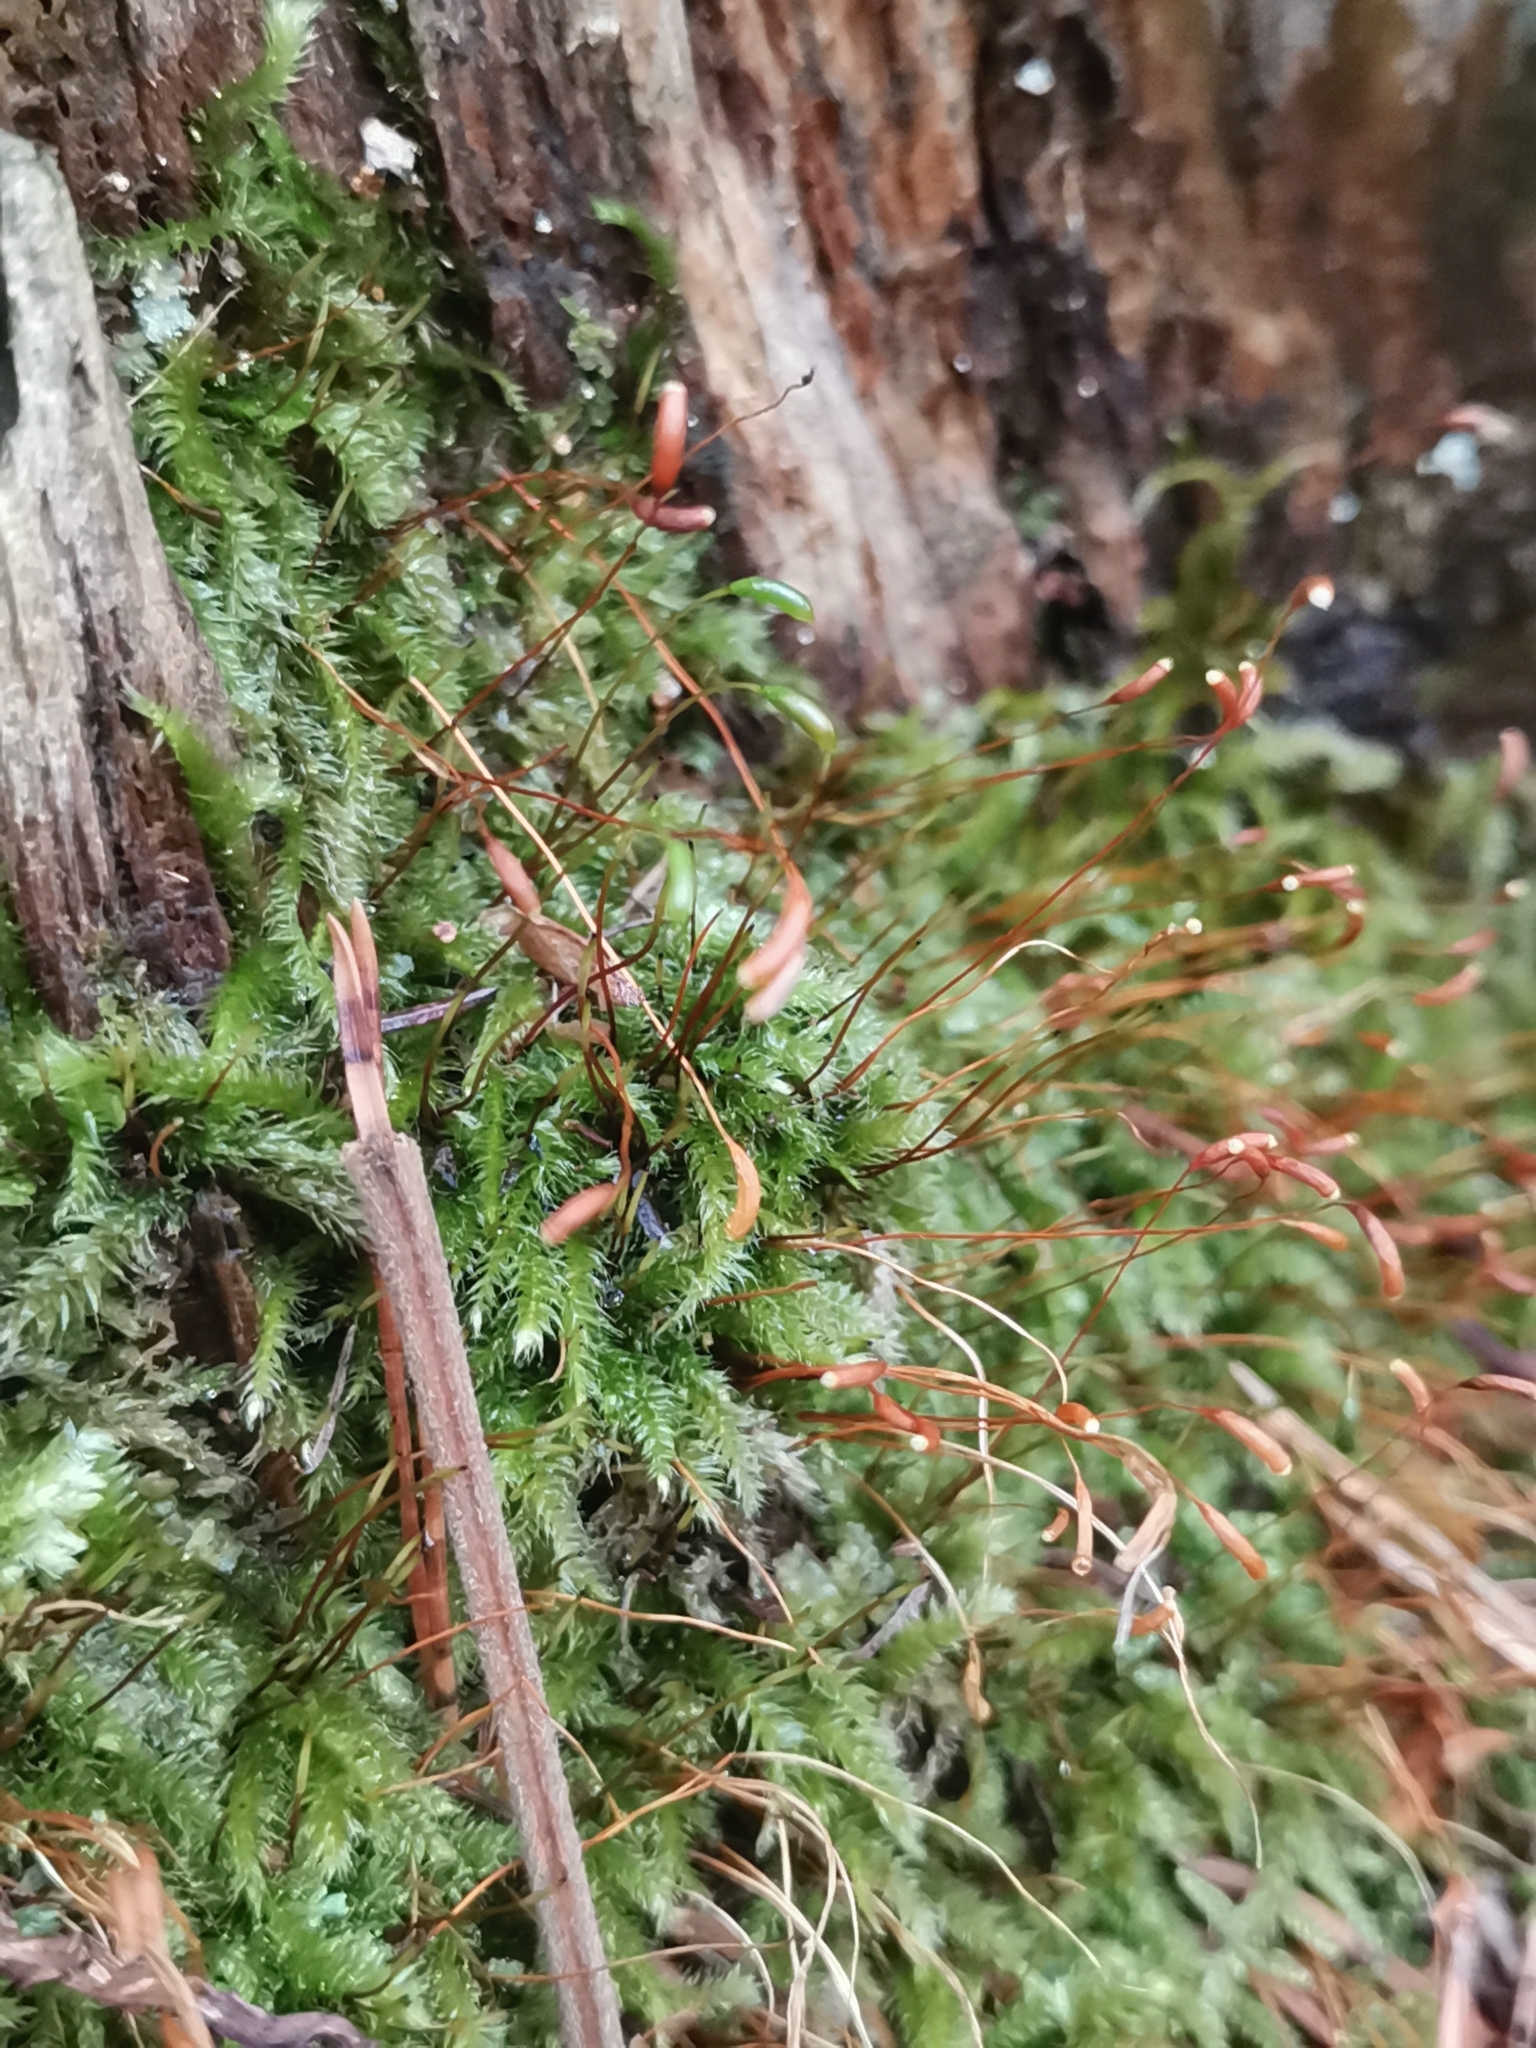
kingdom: Plantae
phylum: Bryophyta
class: Bryopsida
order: Hypnales
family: Plagiotheciaceae
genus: Herzogiella
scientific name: Herzogiella seligeri
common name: Silesian feather-moss
